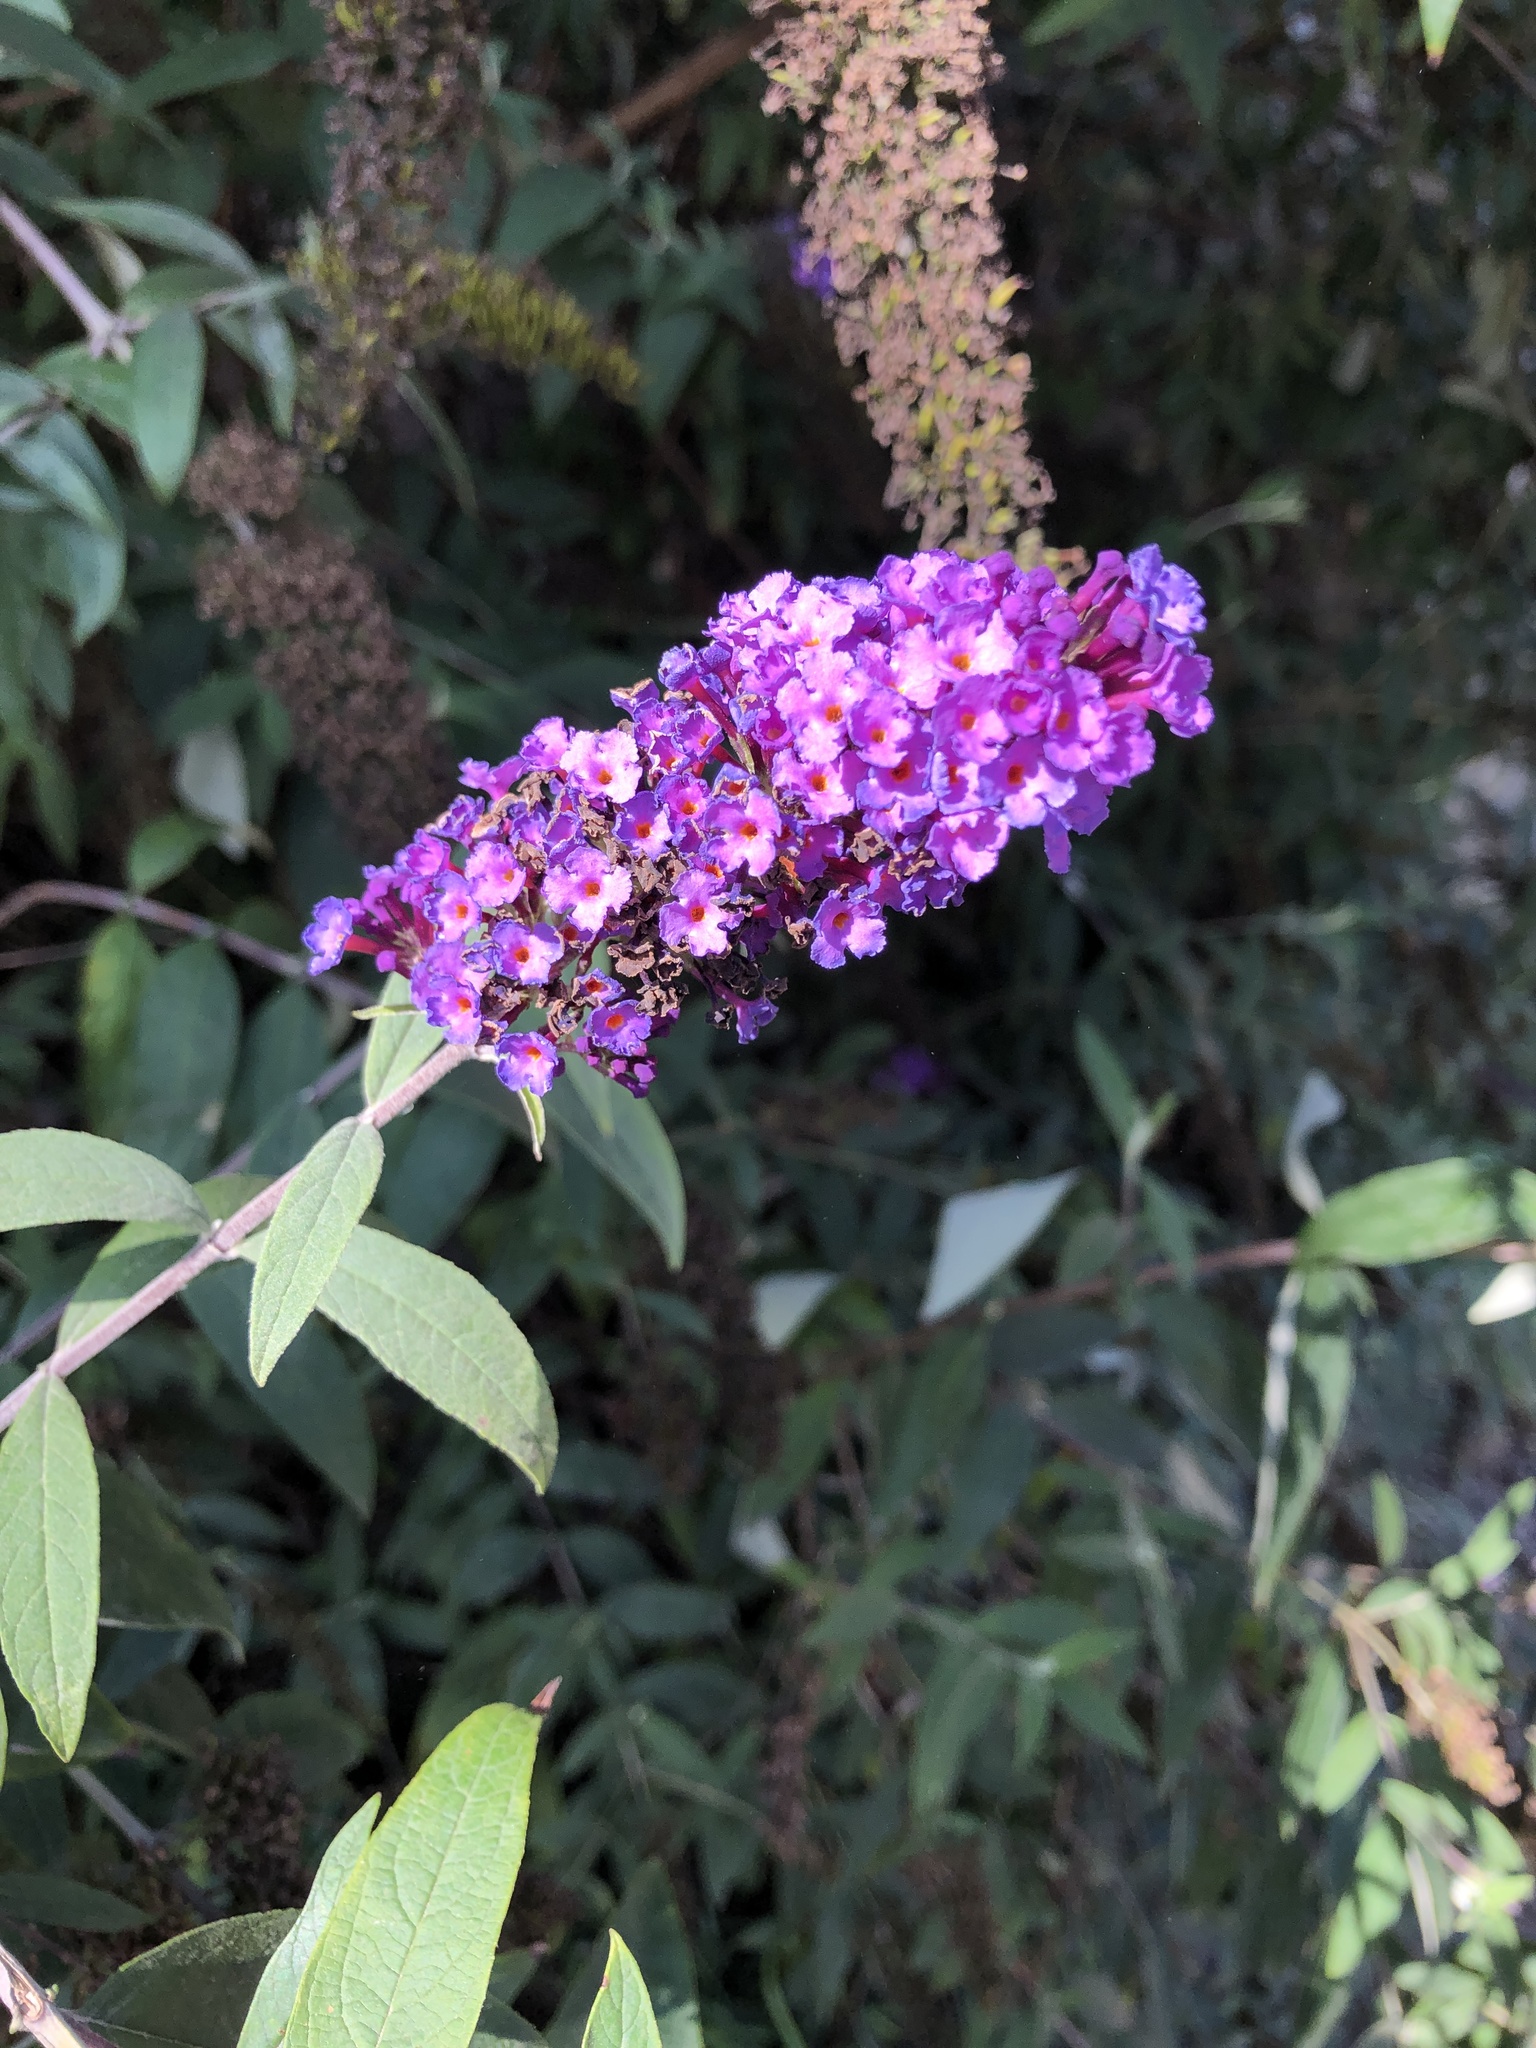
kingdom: Plantae
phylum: Tracheophyta
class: Magnoliopsida
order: Lamiales
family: Scrophulariaceae
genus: Buddleja
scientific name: Buddleja davidii
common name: Butterfly-bush
